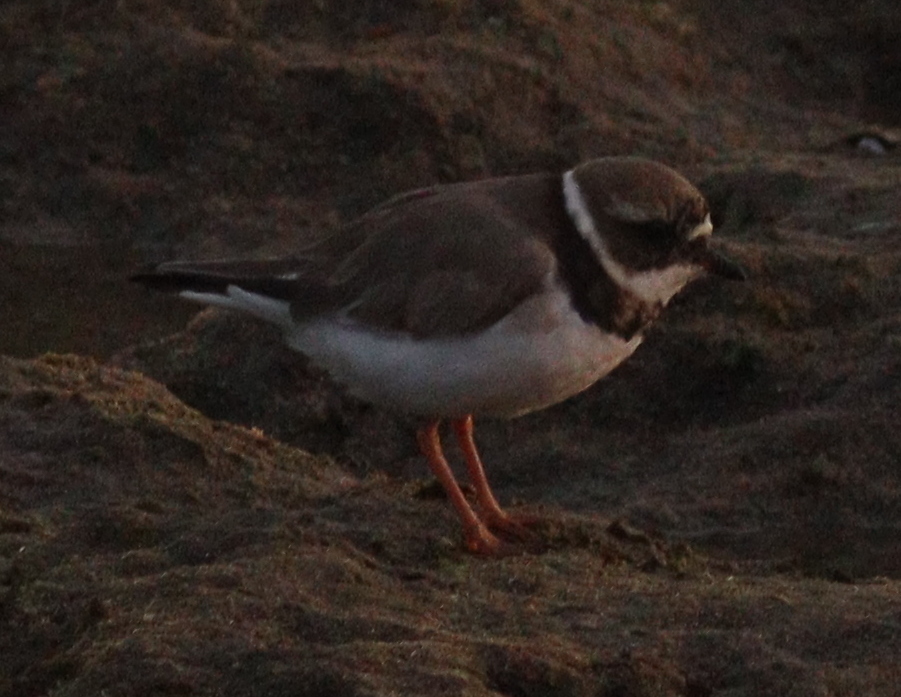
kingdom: Animalia
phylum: Chordata
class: Aves
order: Charadriiformes
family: Charadriidae
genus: Charadrius
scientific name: Charadrius hiaticula
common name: Common ringed plover
